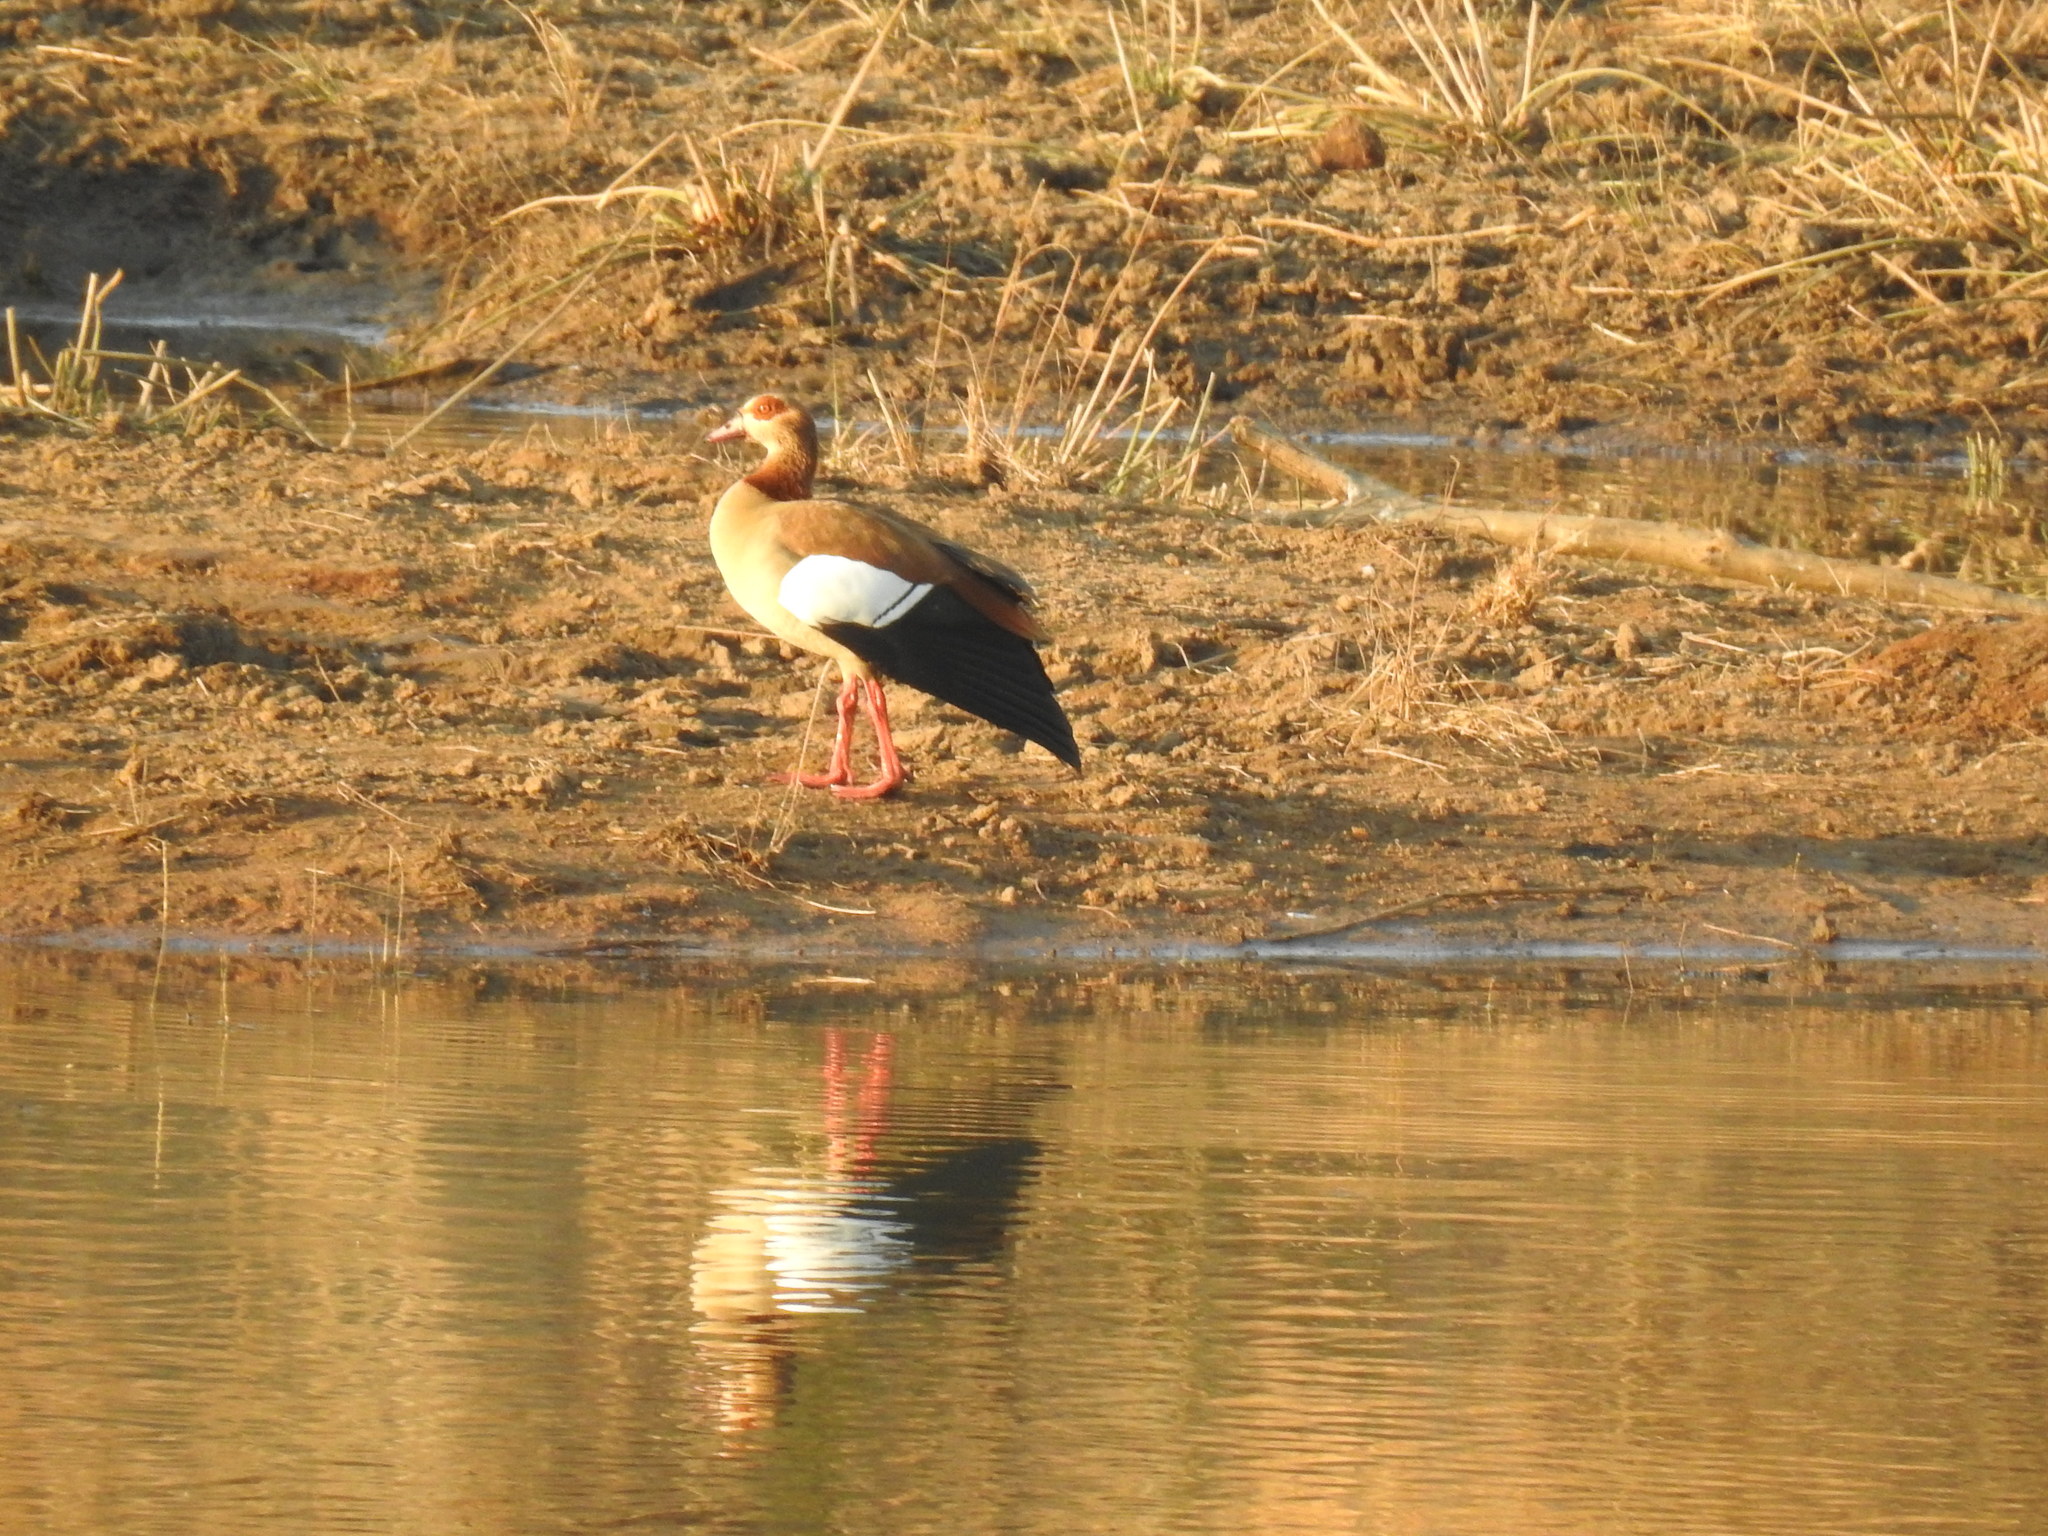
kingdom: Animalia
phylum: Chordata
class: Aves
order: Anseriformes
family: Anatidae
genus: Alopochen
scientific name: Alopochen aegyptiaca
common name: Egyptian goose
